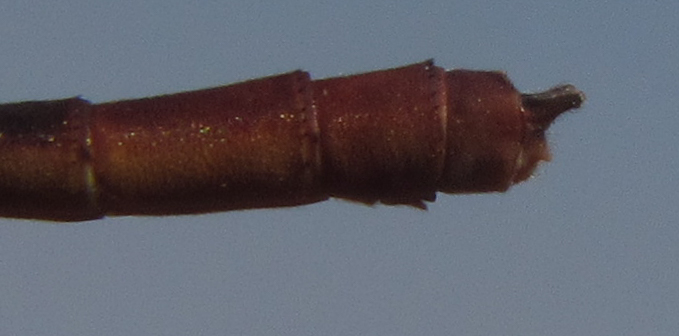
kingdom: Animalia
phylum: Arthropoda
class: Insecta
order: Odonata
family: Coenagrionidae
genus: Ceriagrion
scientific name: Ceriagrion katamborae
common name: White-faced waxtail
